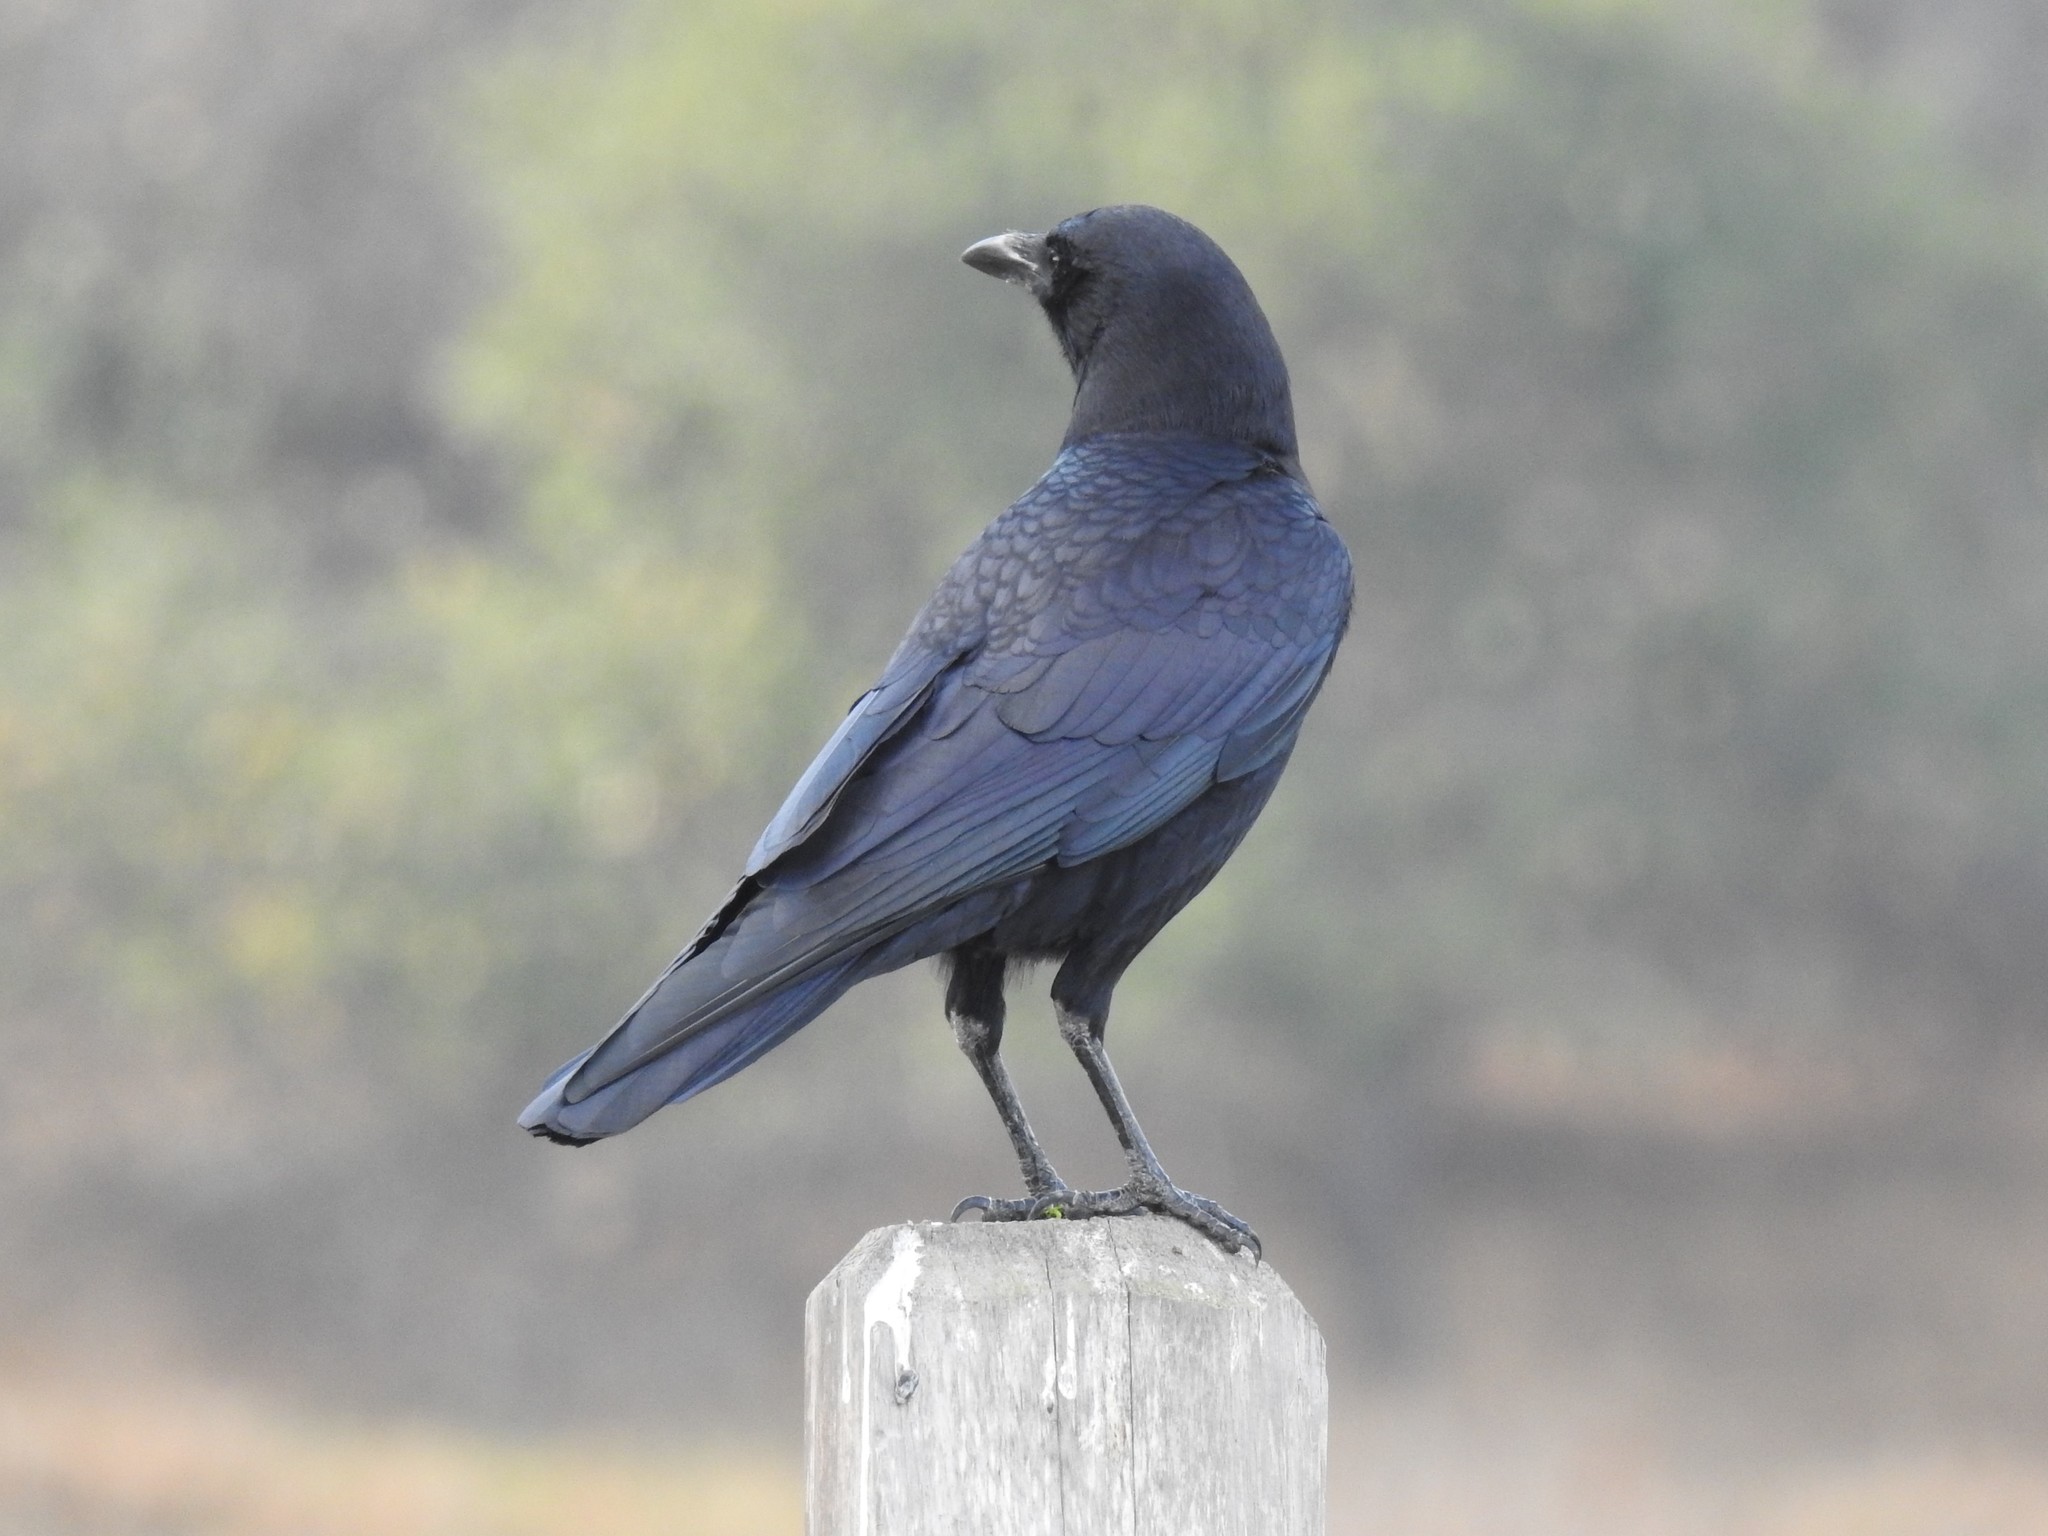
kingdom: Animalia
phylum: Chordata
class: Aves
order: Passeriformes
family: Corvidae
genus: Corvus
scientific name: Corvus brachyrhynchos
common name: American crow
